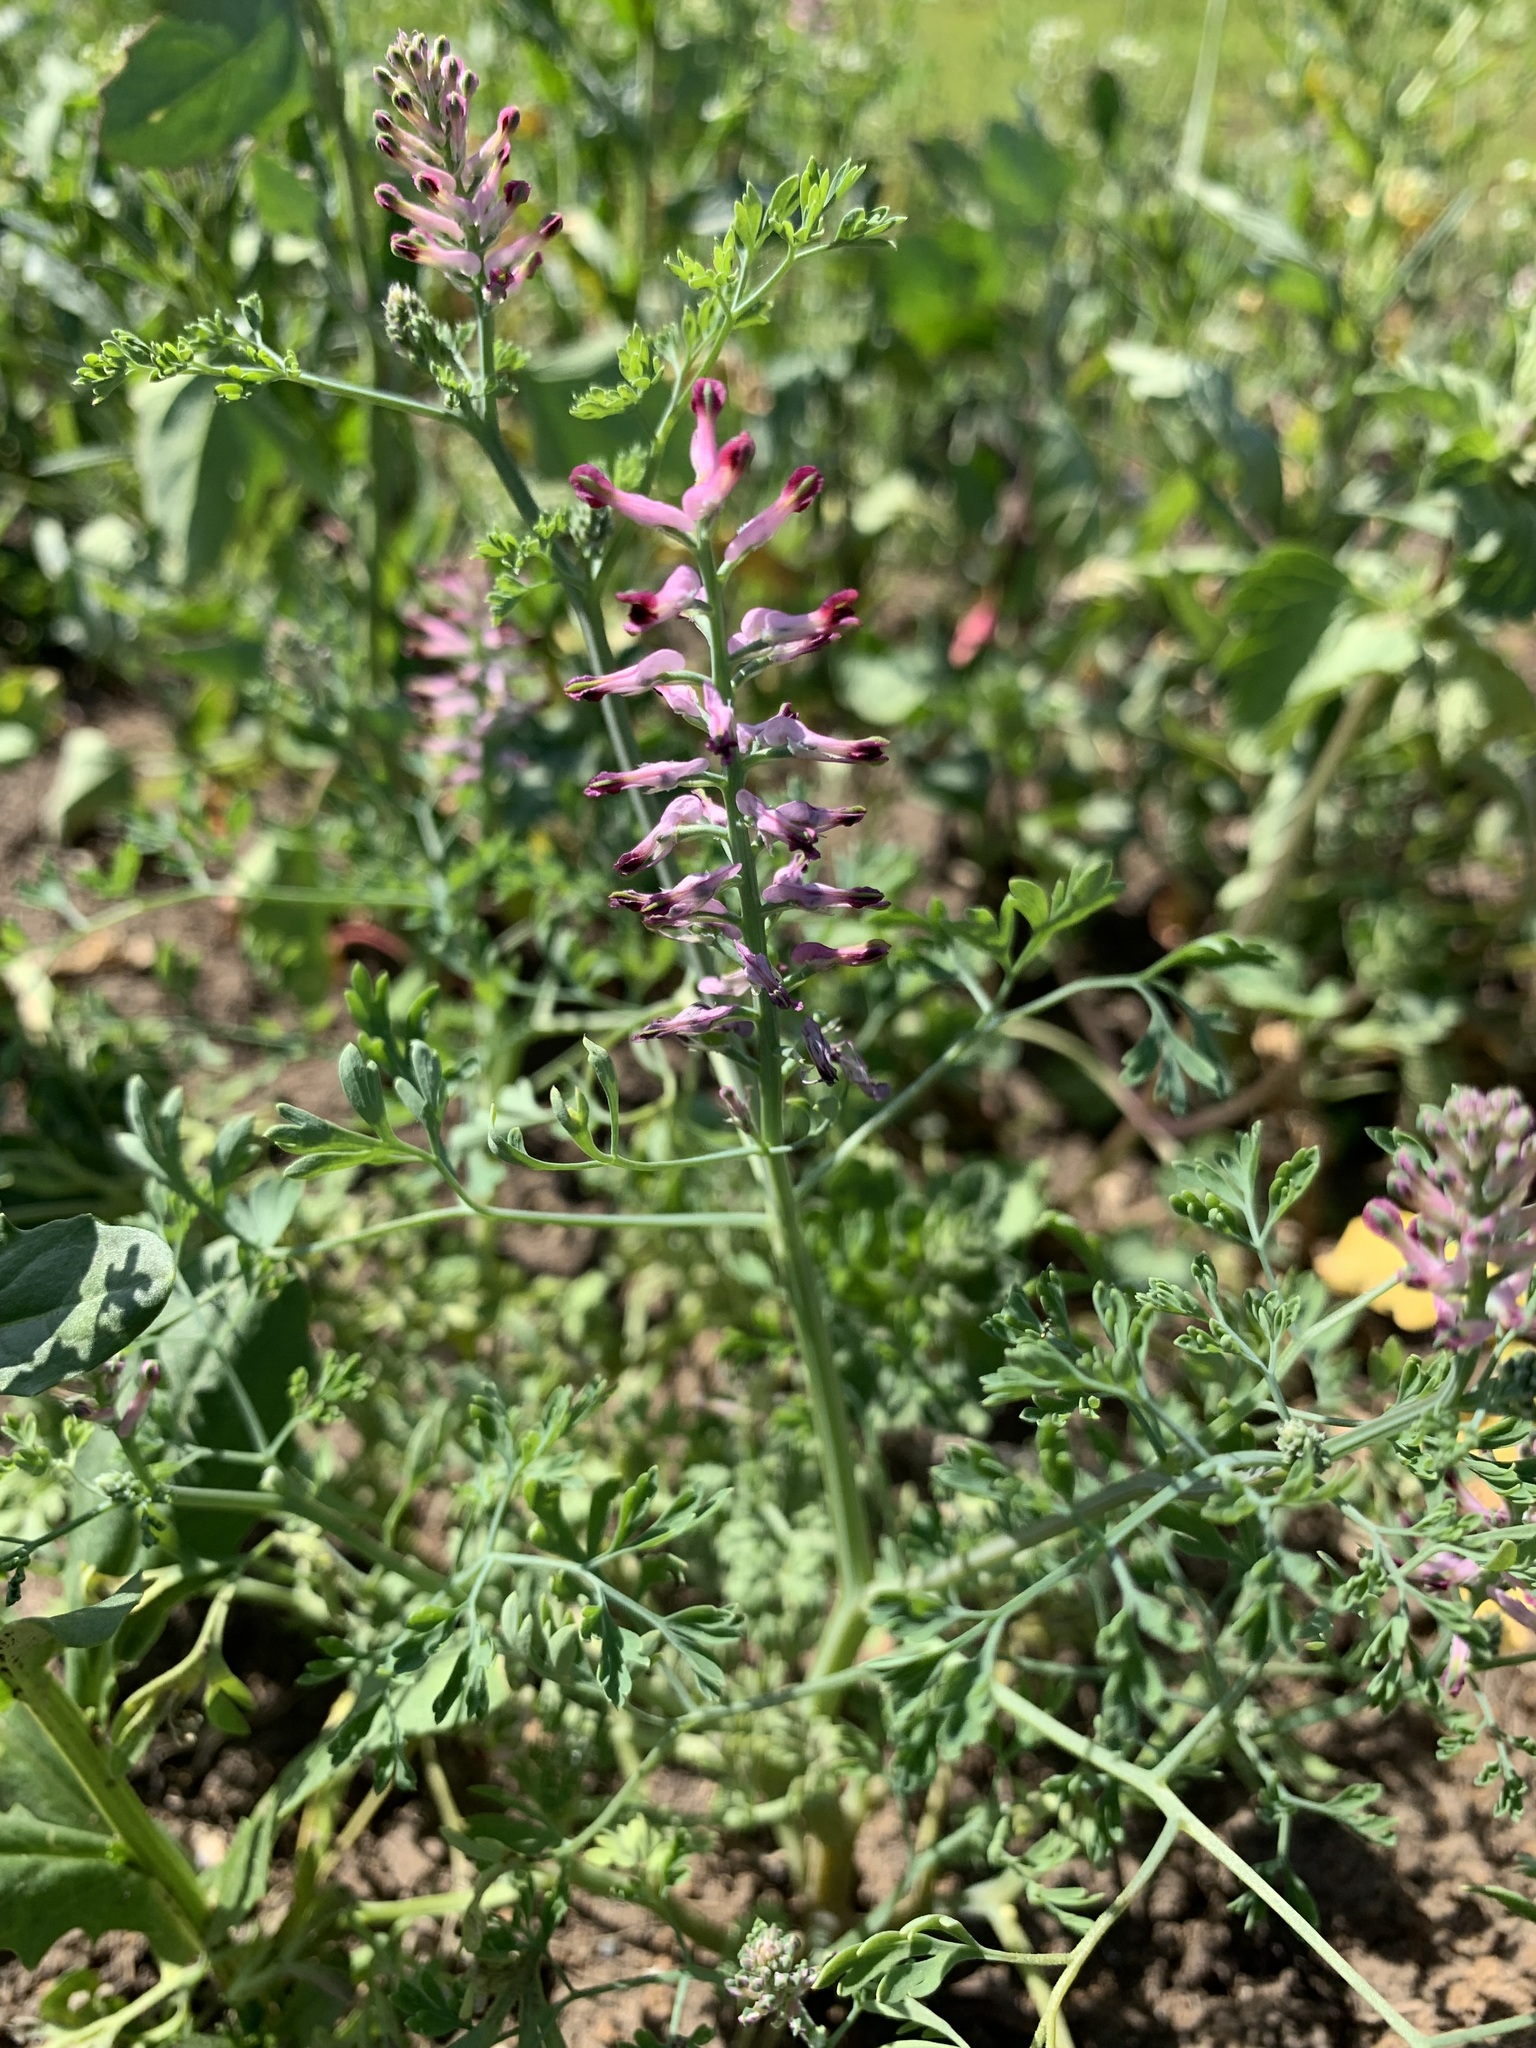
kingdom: Plantae
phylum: Tracheophyta
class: Magnoliopsida
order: Ranunculales
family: Papaveraceae
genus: Fumaria
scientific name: Fumaria officinalis
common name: Common fumitory
